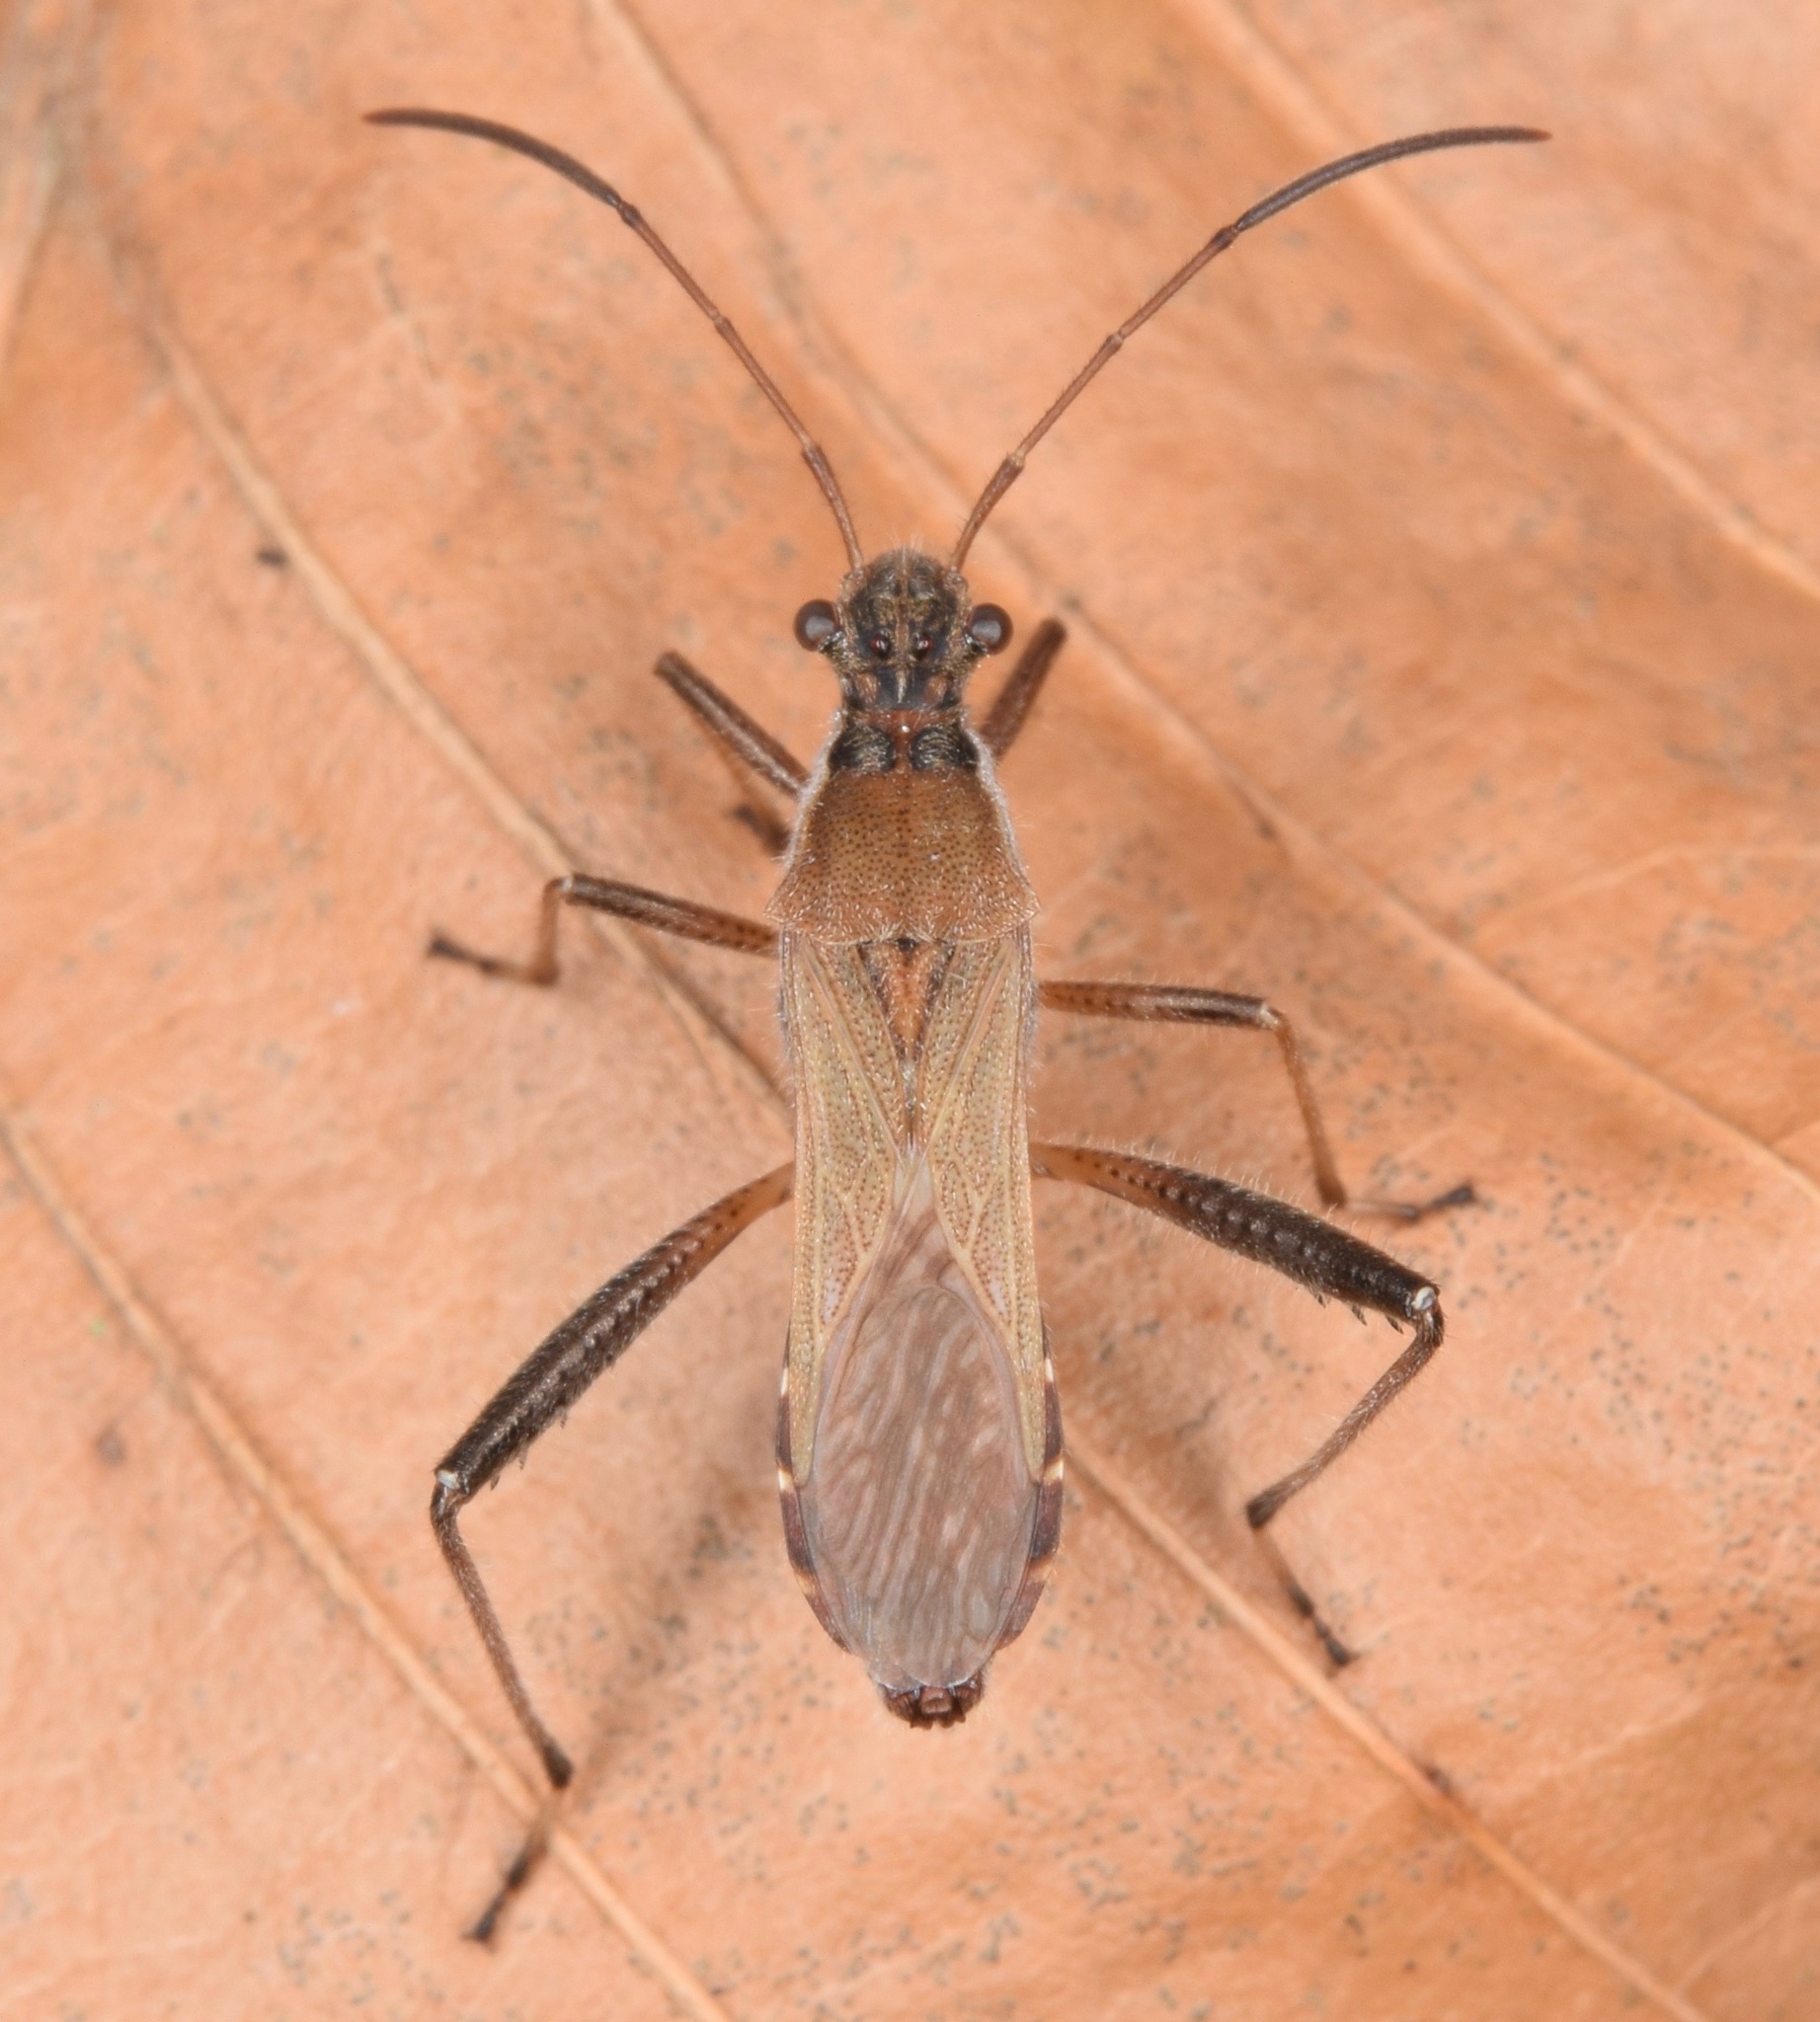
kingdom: Animalia
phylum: Arthropoda
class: Insecta
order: Hemiptera
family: Alydidae
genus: Alydus
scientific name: Alydus pilosulus
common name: Broad-headed bug
